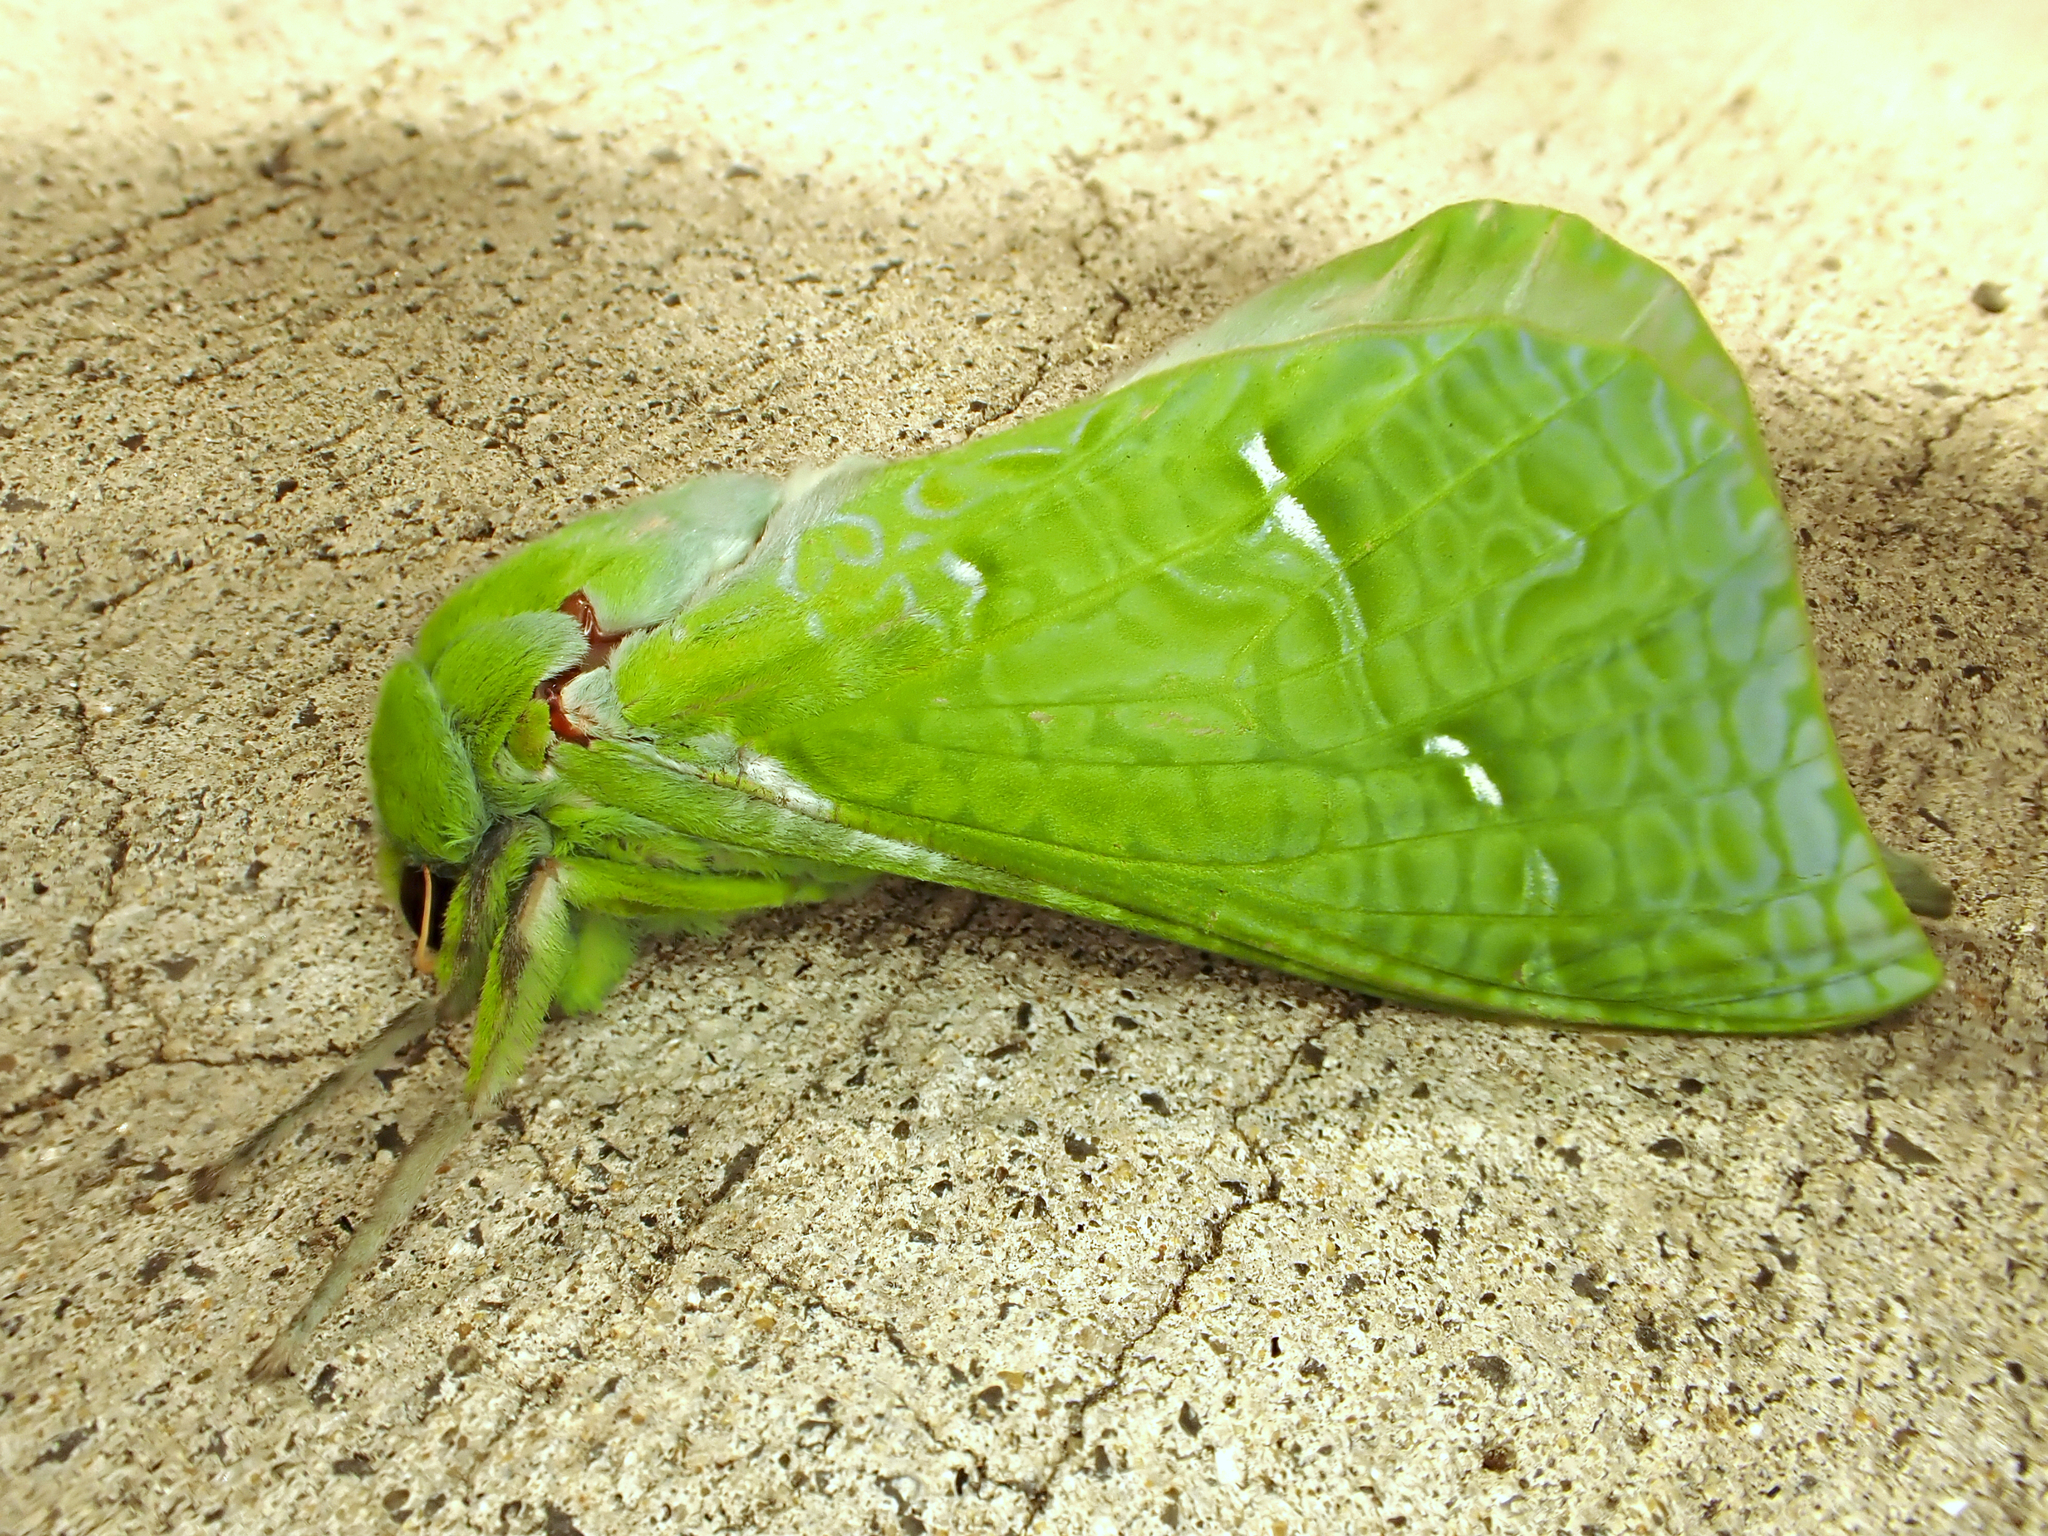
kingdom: Animalia
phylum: Arthropoda
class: Insecta
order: Lepidoptera
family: Hepialidae
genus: Aenetus
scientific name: Aenetus virescens
